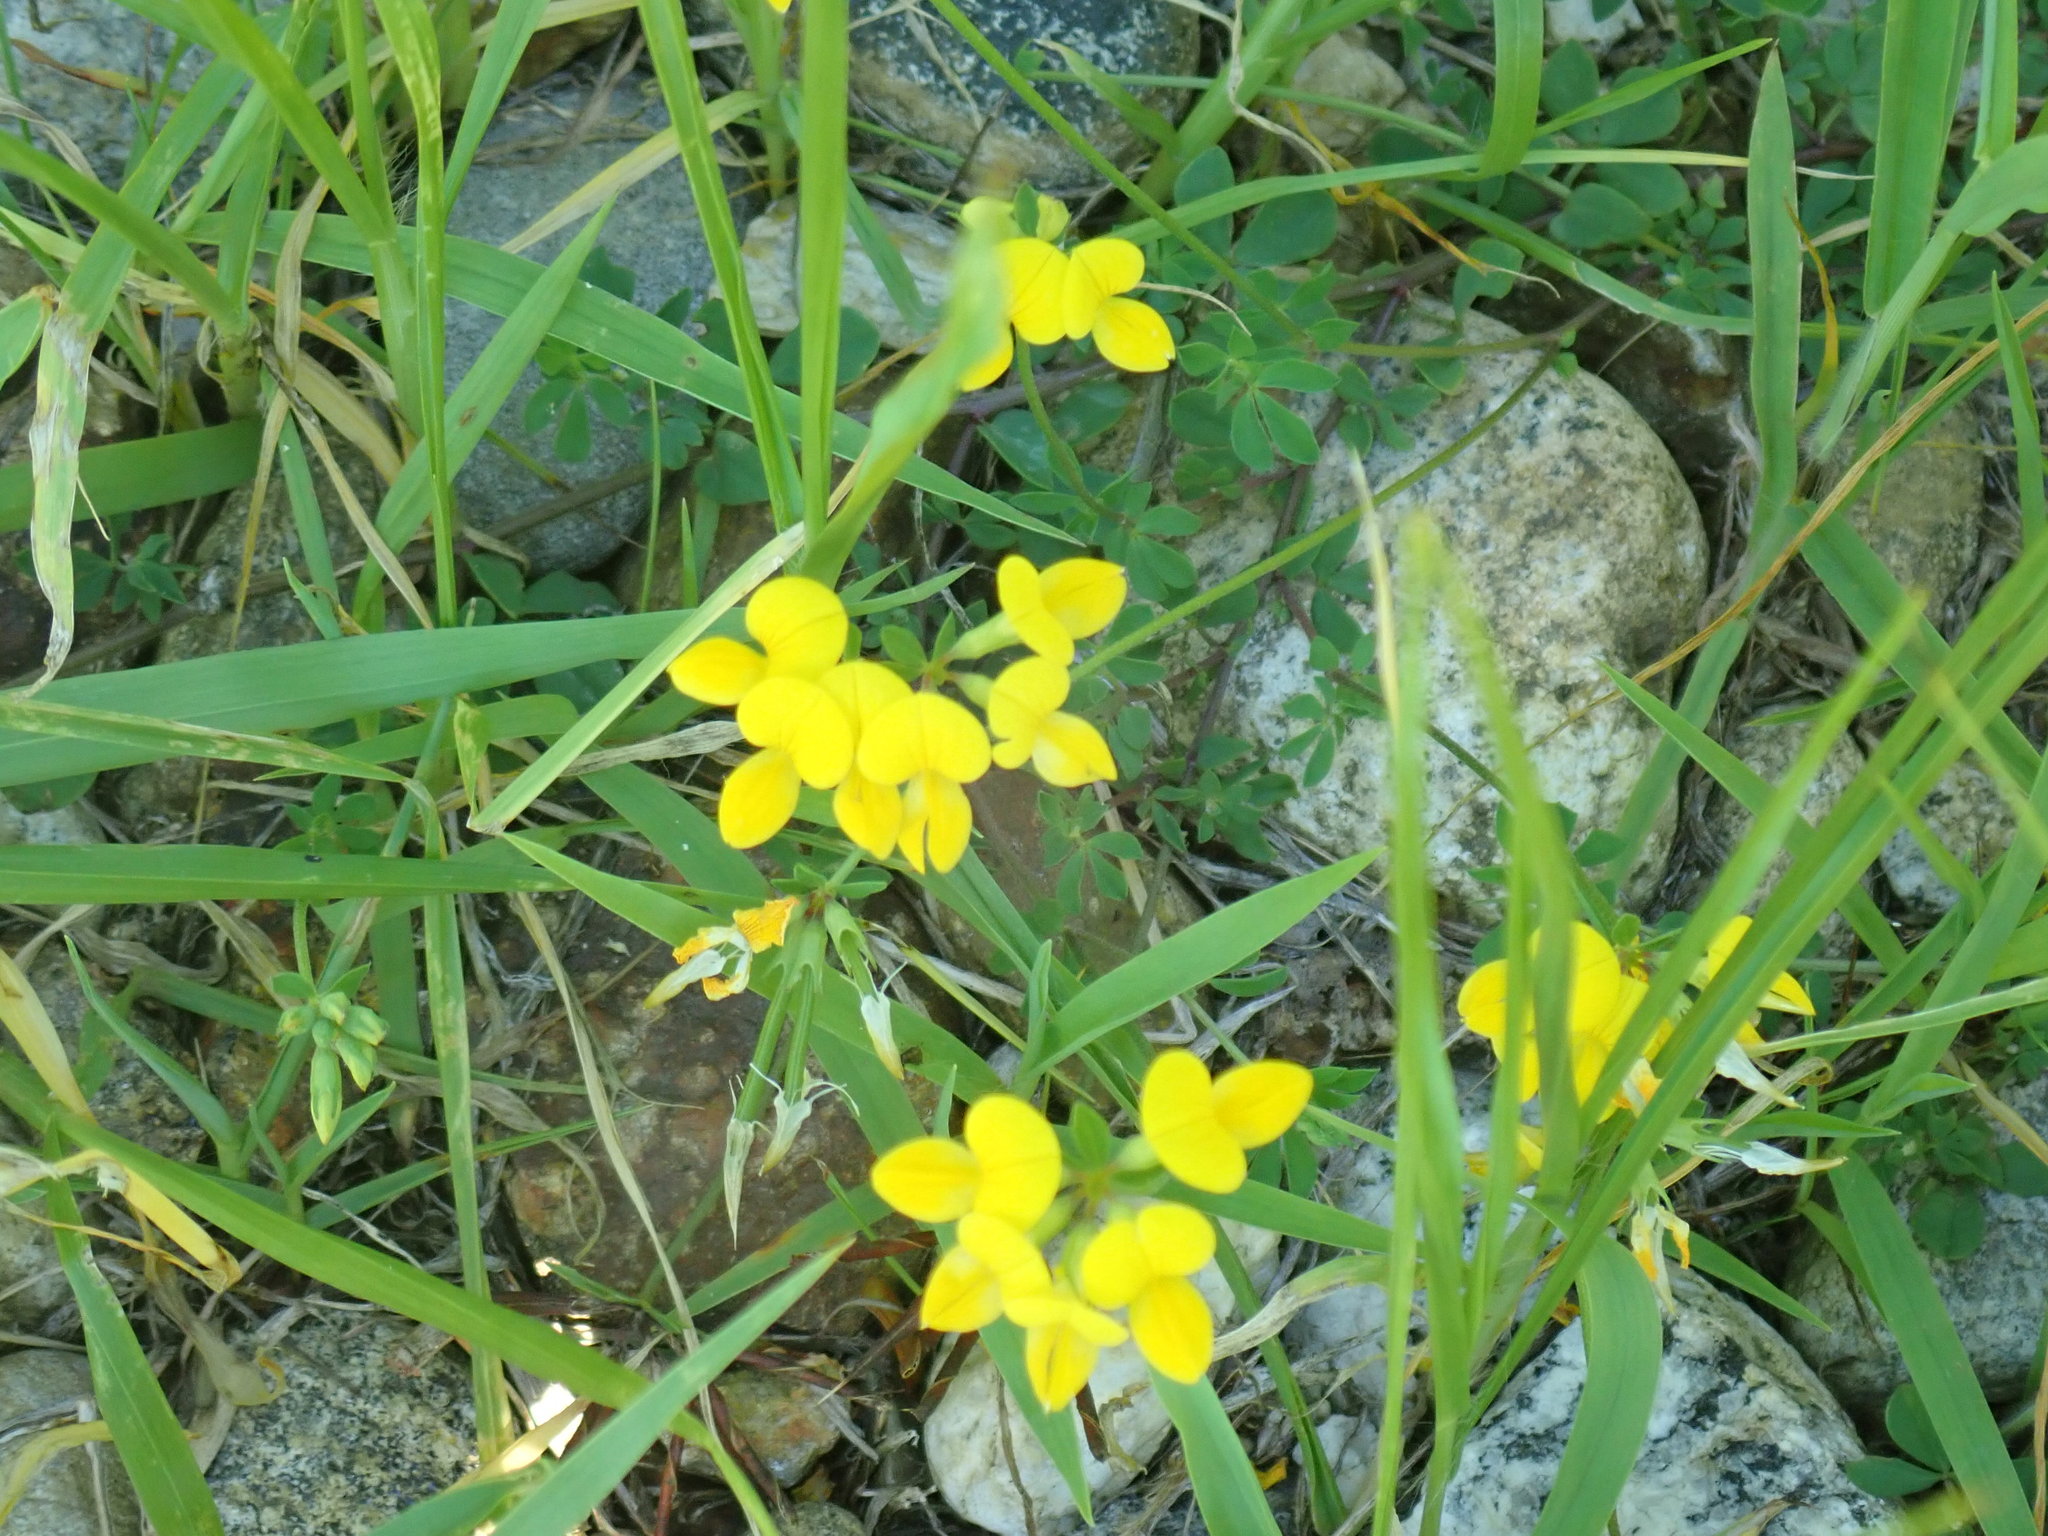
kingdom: Plantae
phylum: Tracheophyta
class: Magnoliopsida
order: Fabales
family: Fabaceae
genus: Lotus
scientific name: Lotus corniculatus
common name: Common bird's-foot-trefoil
